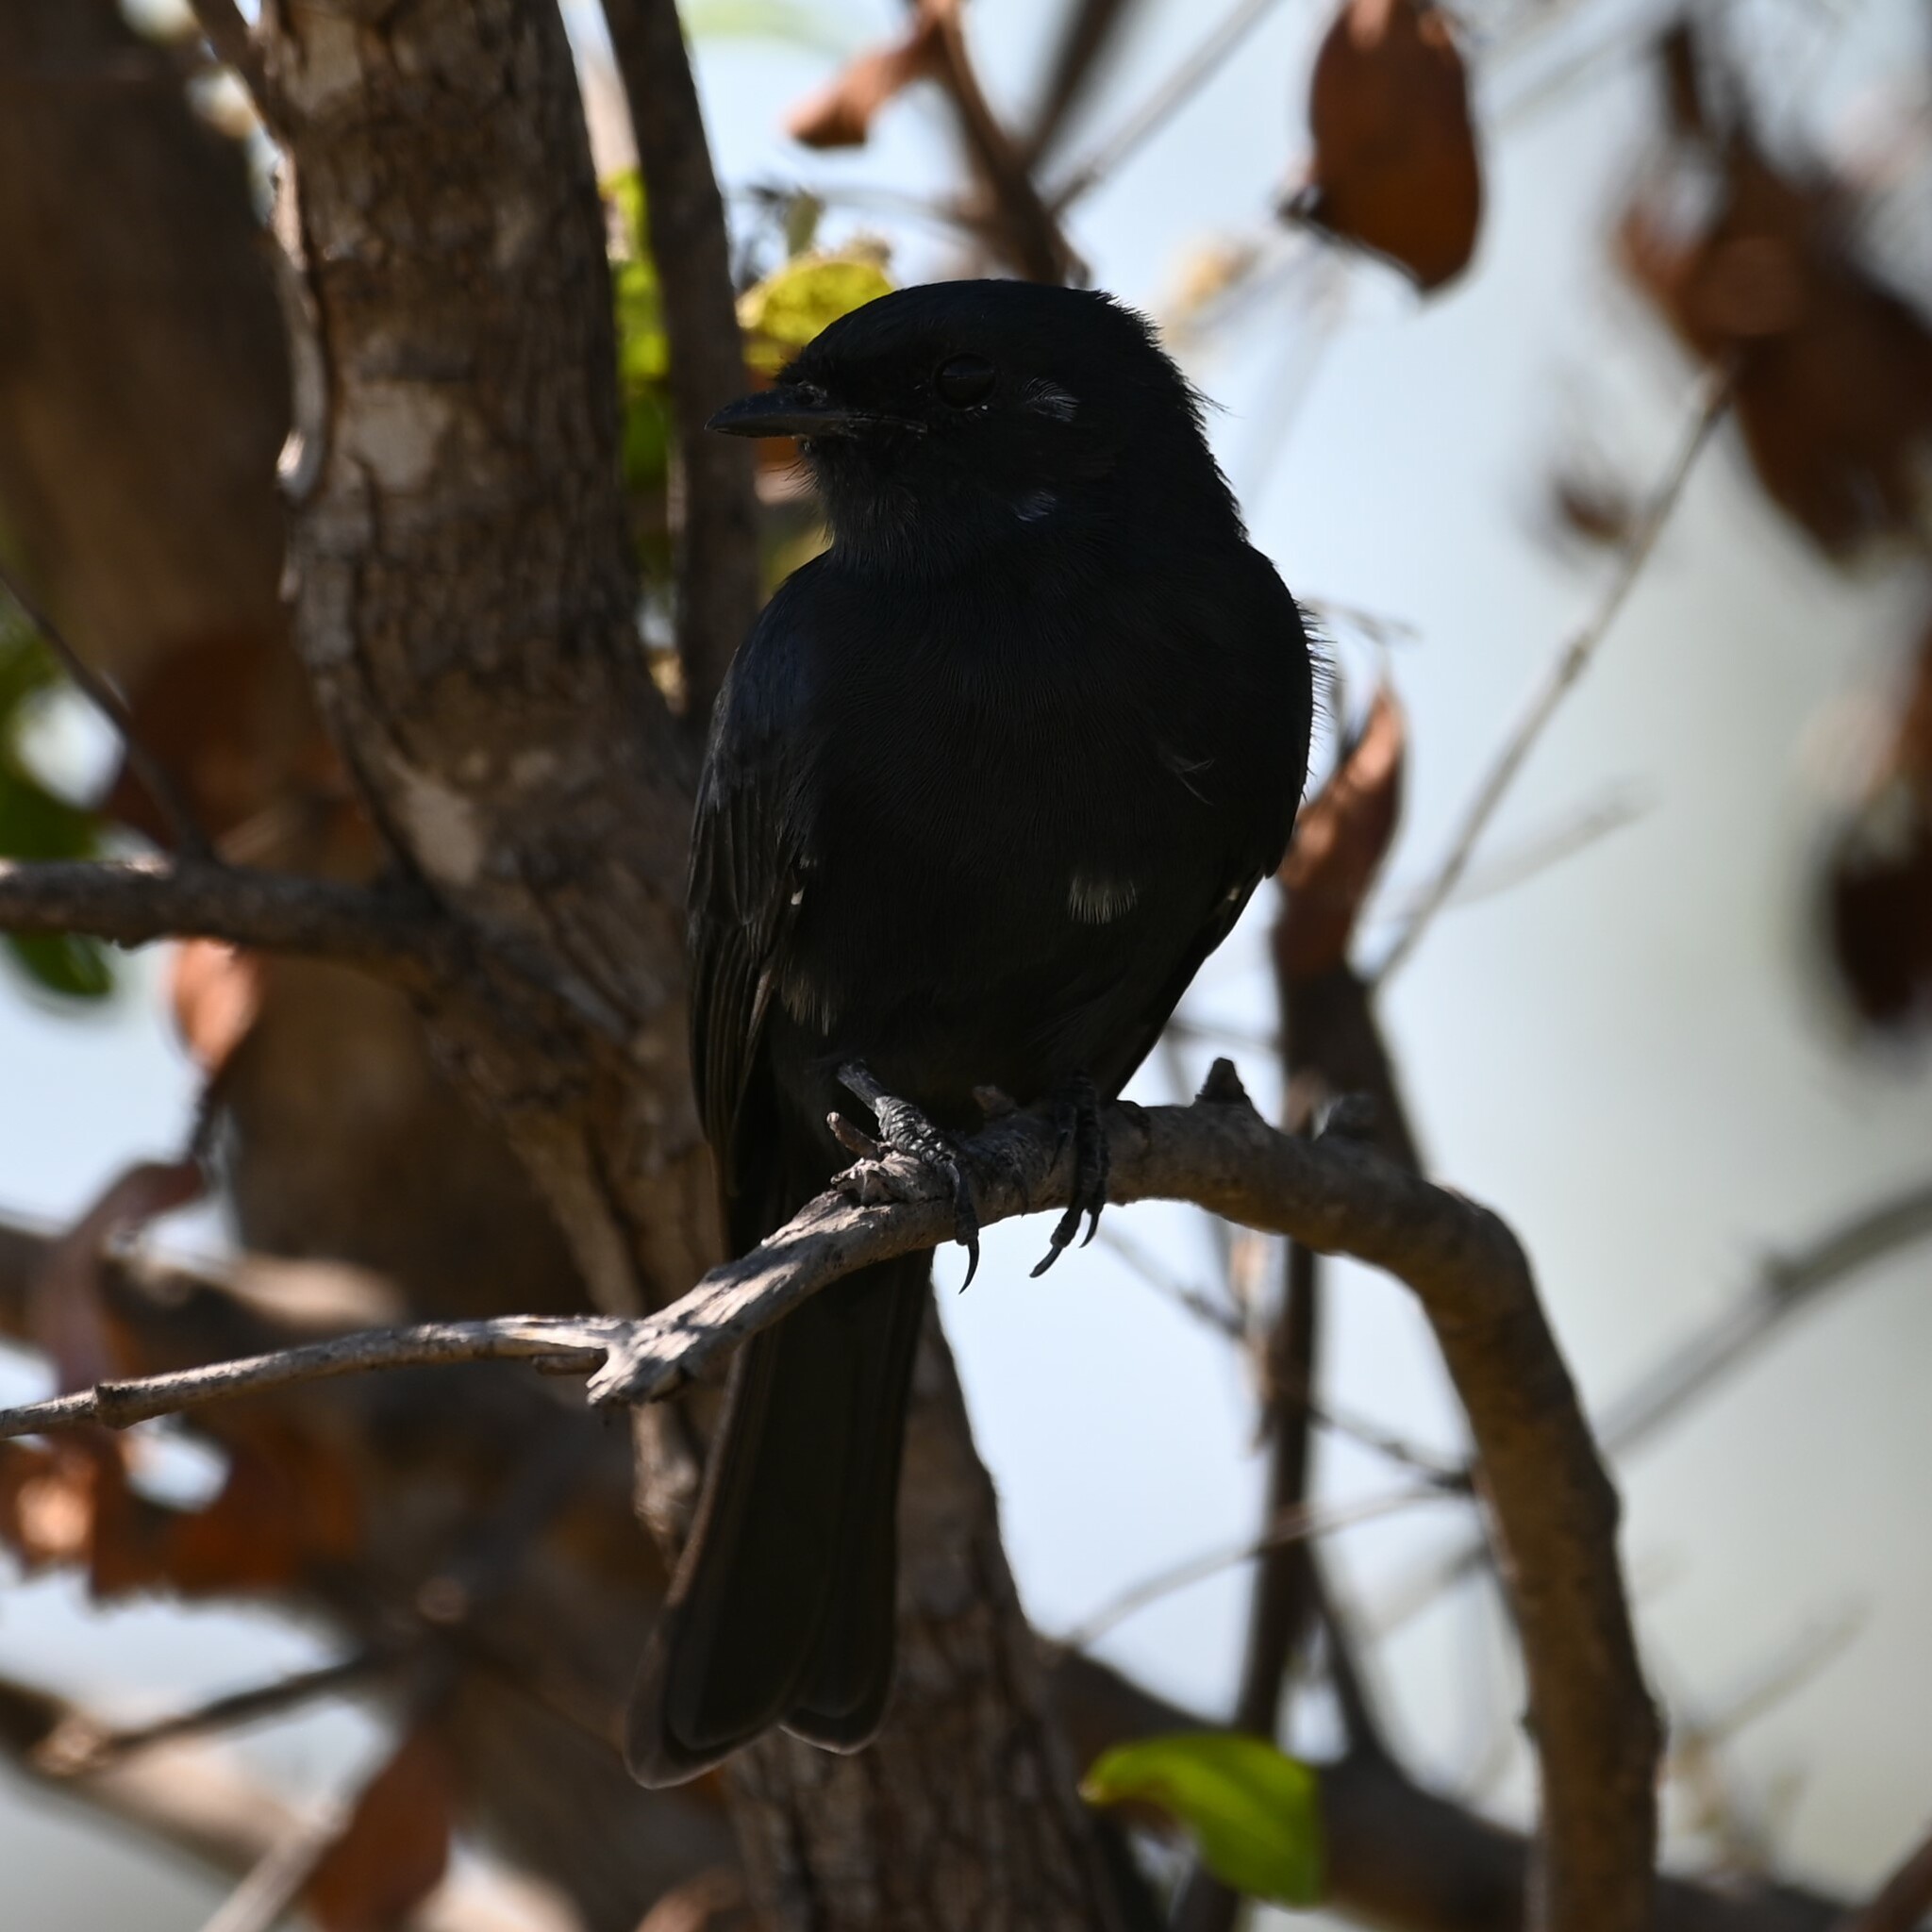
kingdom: Animalia
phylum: Chordata
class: Aves
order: Passeriformes
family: Muscicapidae
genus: Melaenornis
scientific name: Melaenornis pammelaina
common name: Southern black flycatcher
